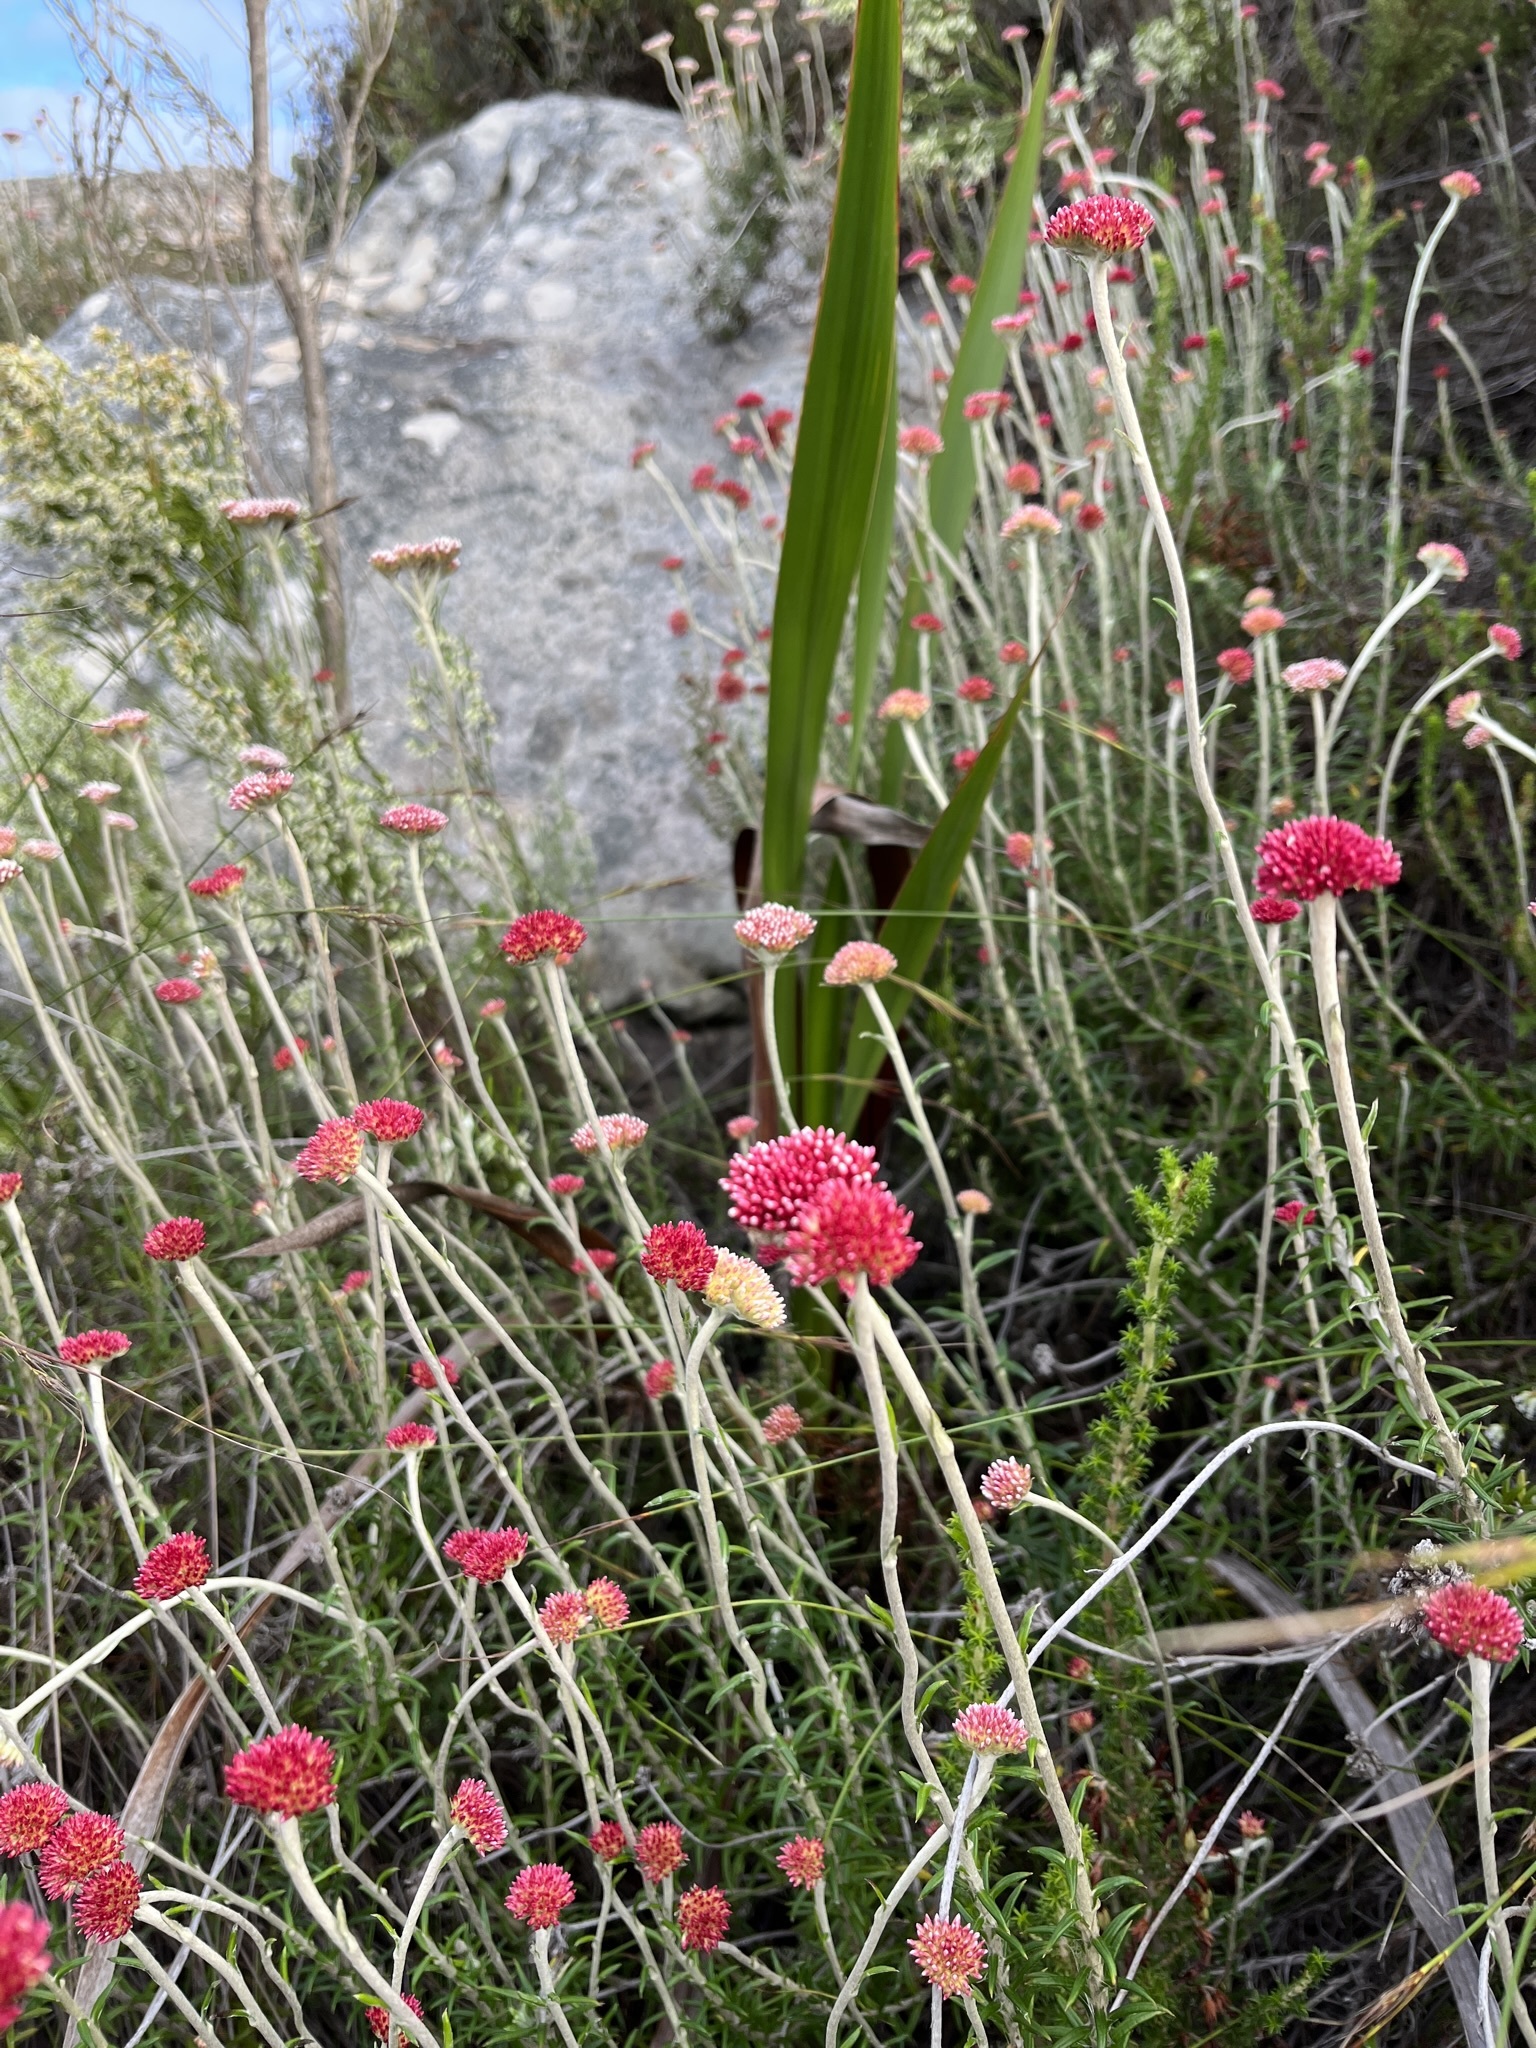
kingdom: Plantae
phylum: Tracheophyta
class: Magnoliopsida
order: Asterales
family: Asteraceae
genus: Anaxeton
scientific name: Anaxeton arborescens
